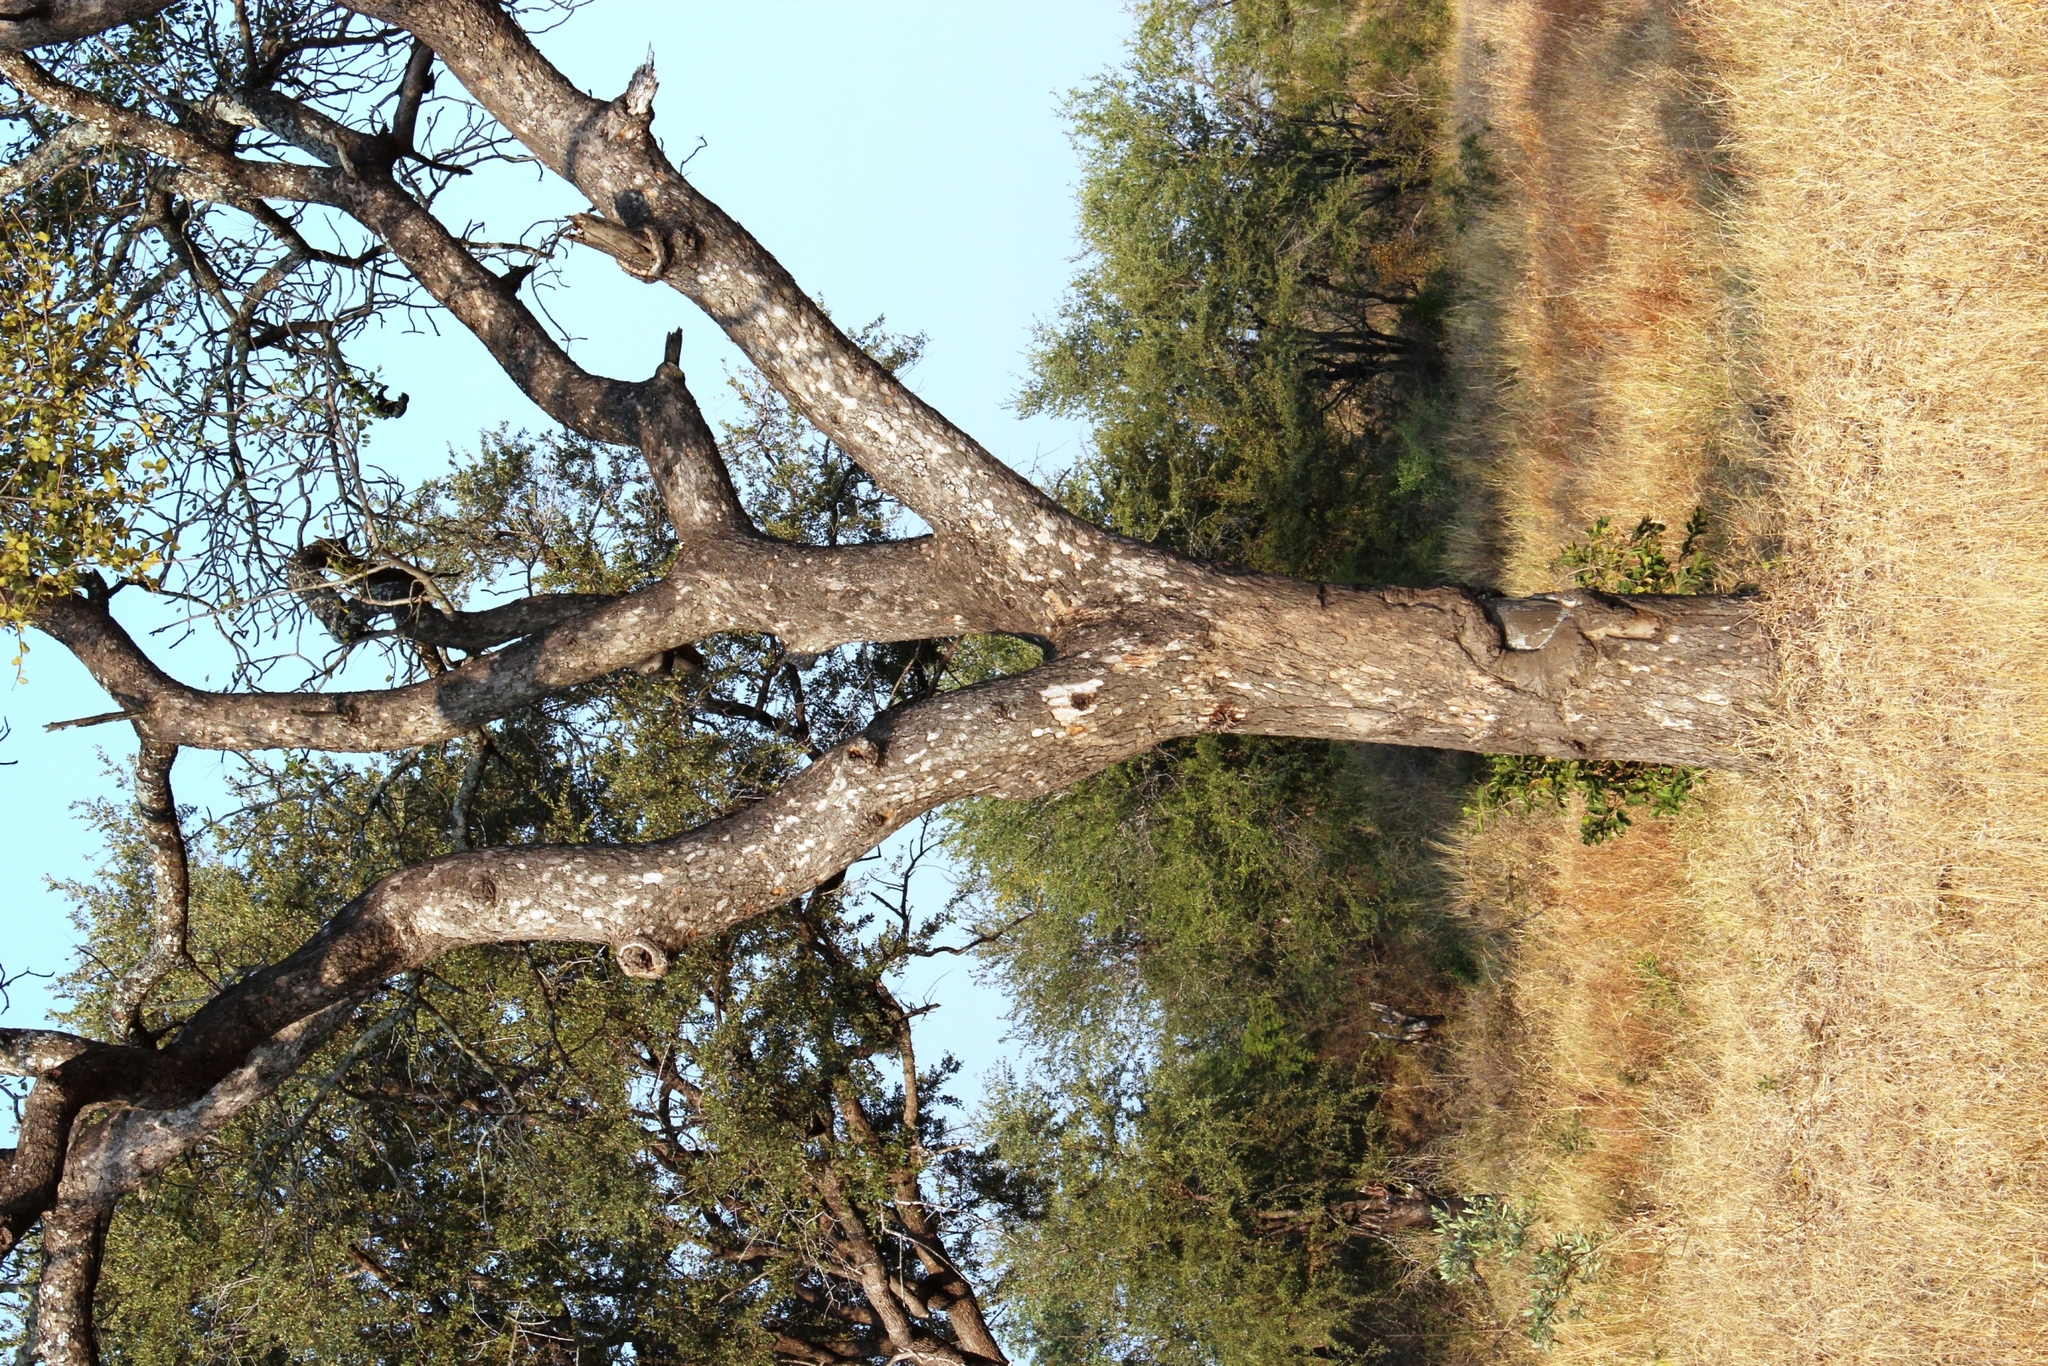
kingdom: Plantae
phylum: Tracheophyta
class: Magnoliopsida
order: Sapindales
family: Anacardiaceae
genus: Sclerocarya
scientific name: Sclerocarya birrea
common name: Marula
